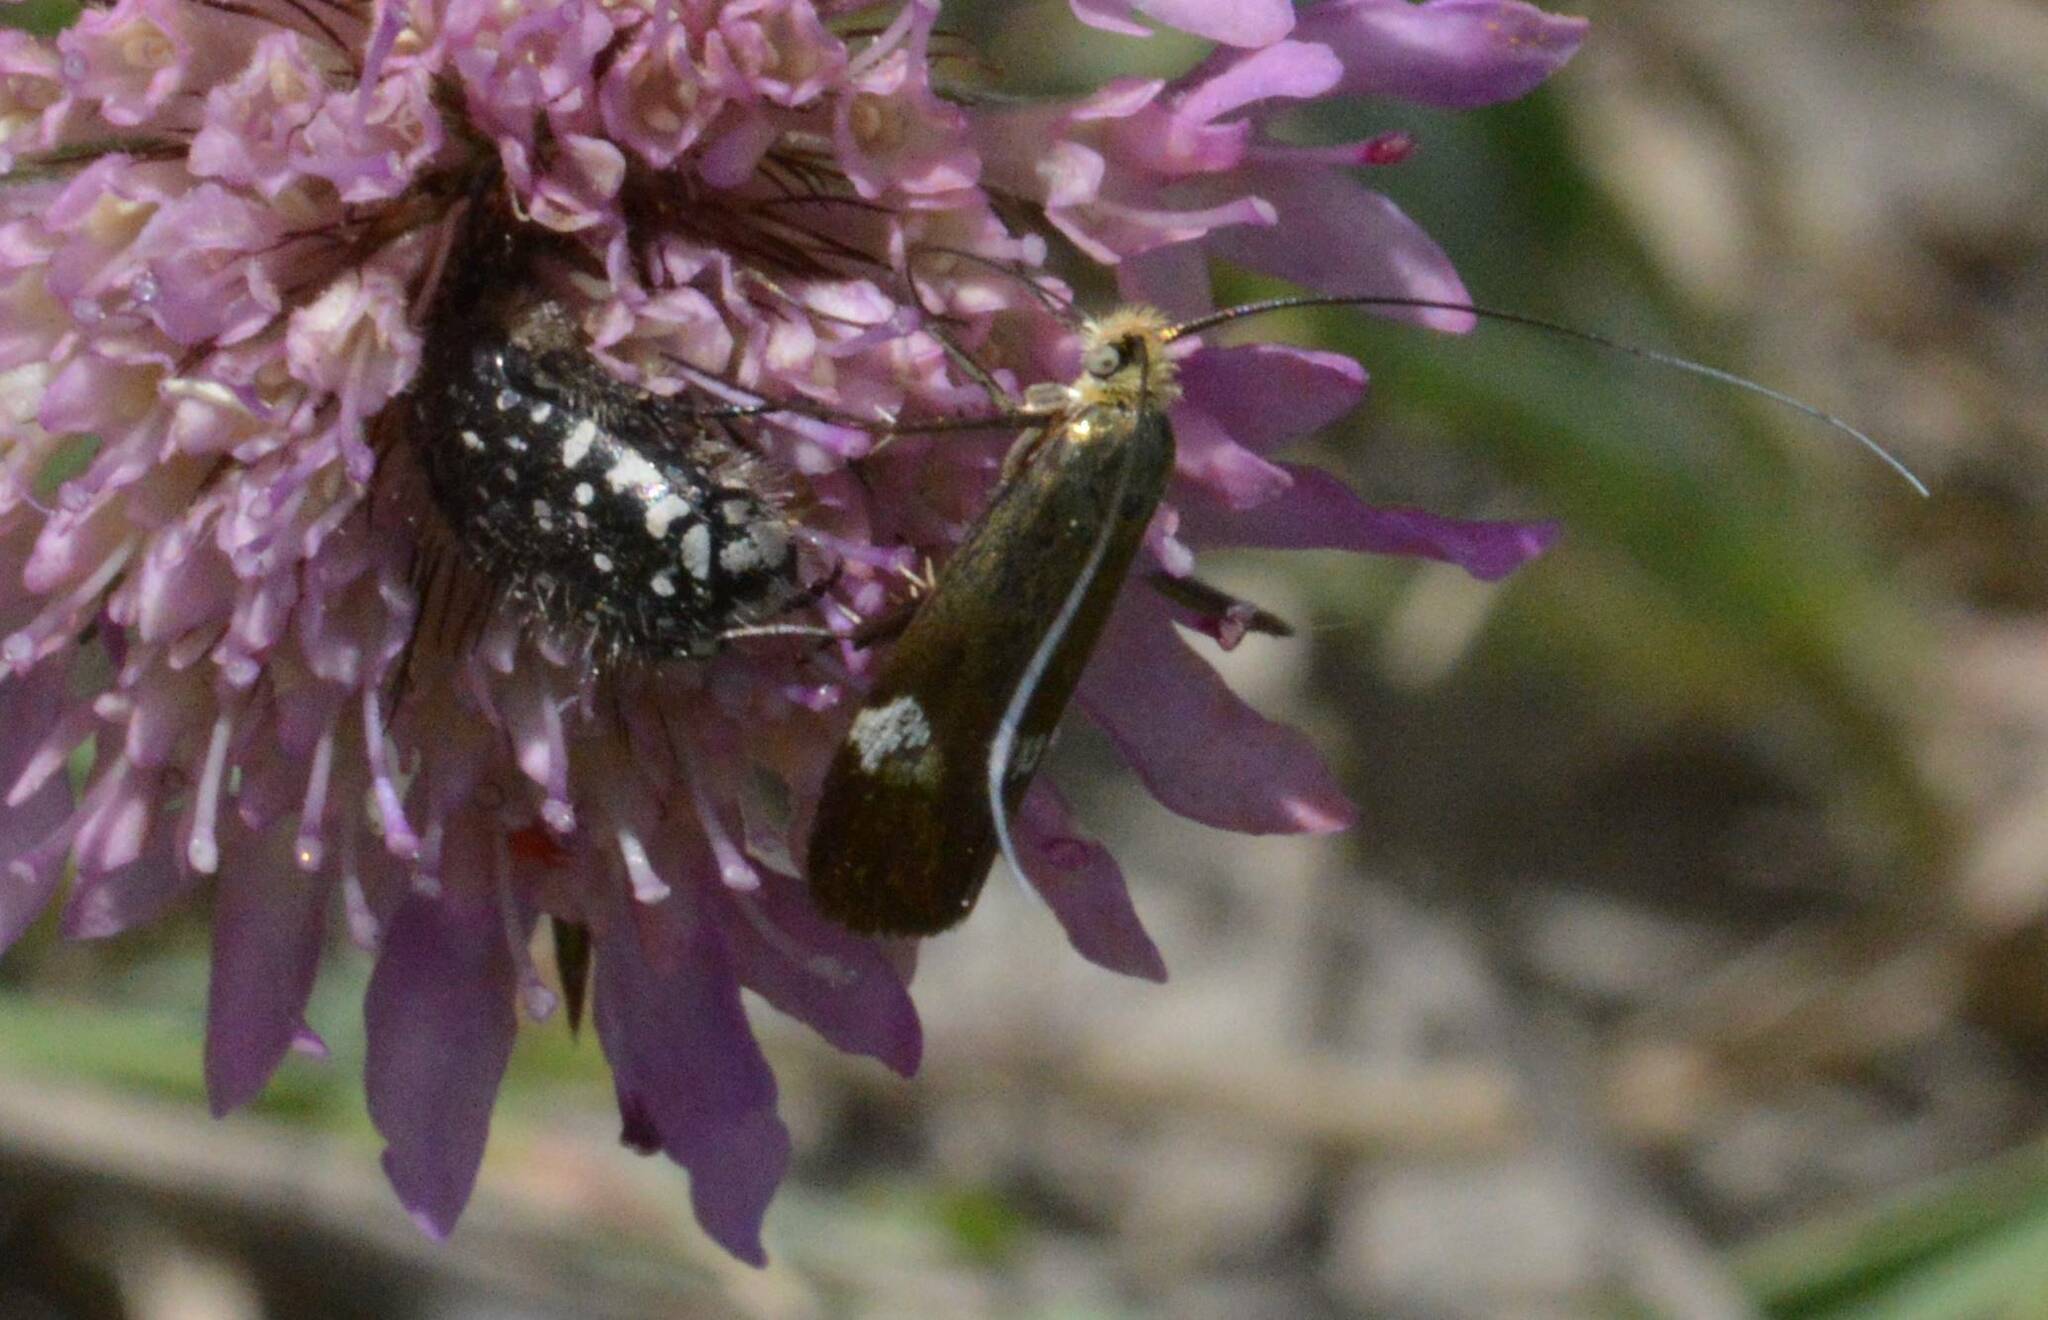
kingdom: Animalia
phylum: Arthropoda
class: Insecta
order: Lepidoptera
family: Adelidae
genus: Nemophora
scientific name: Nemophora raddaella
